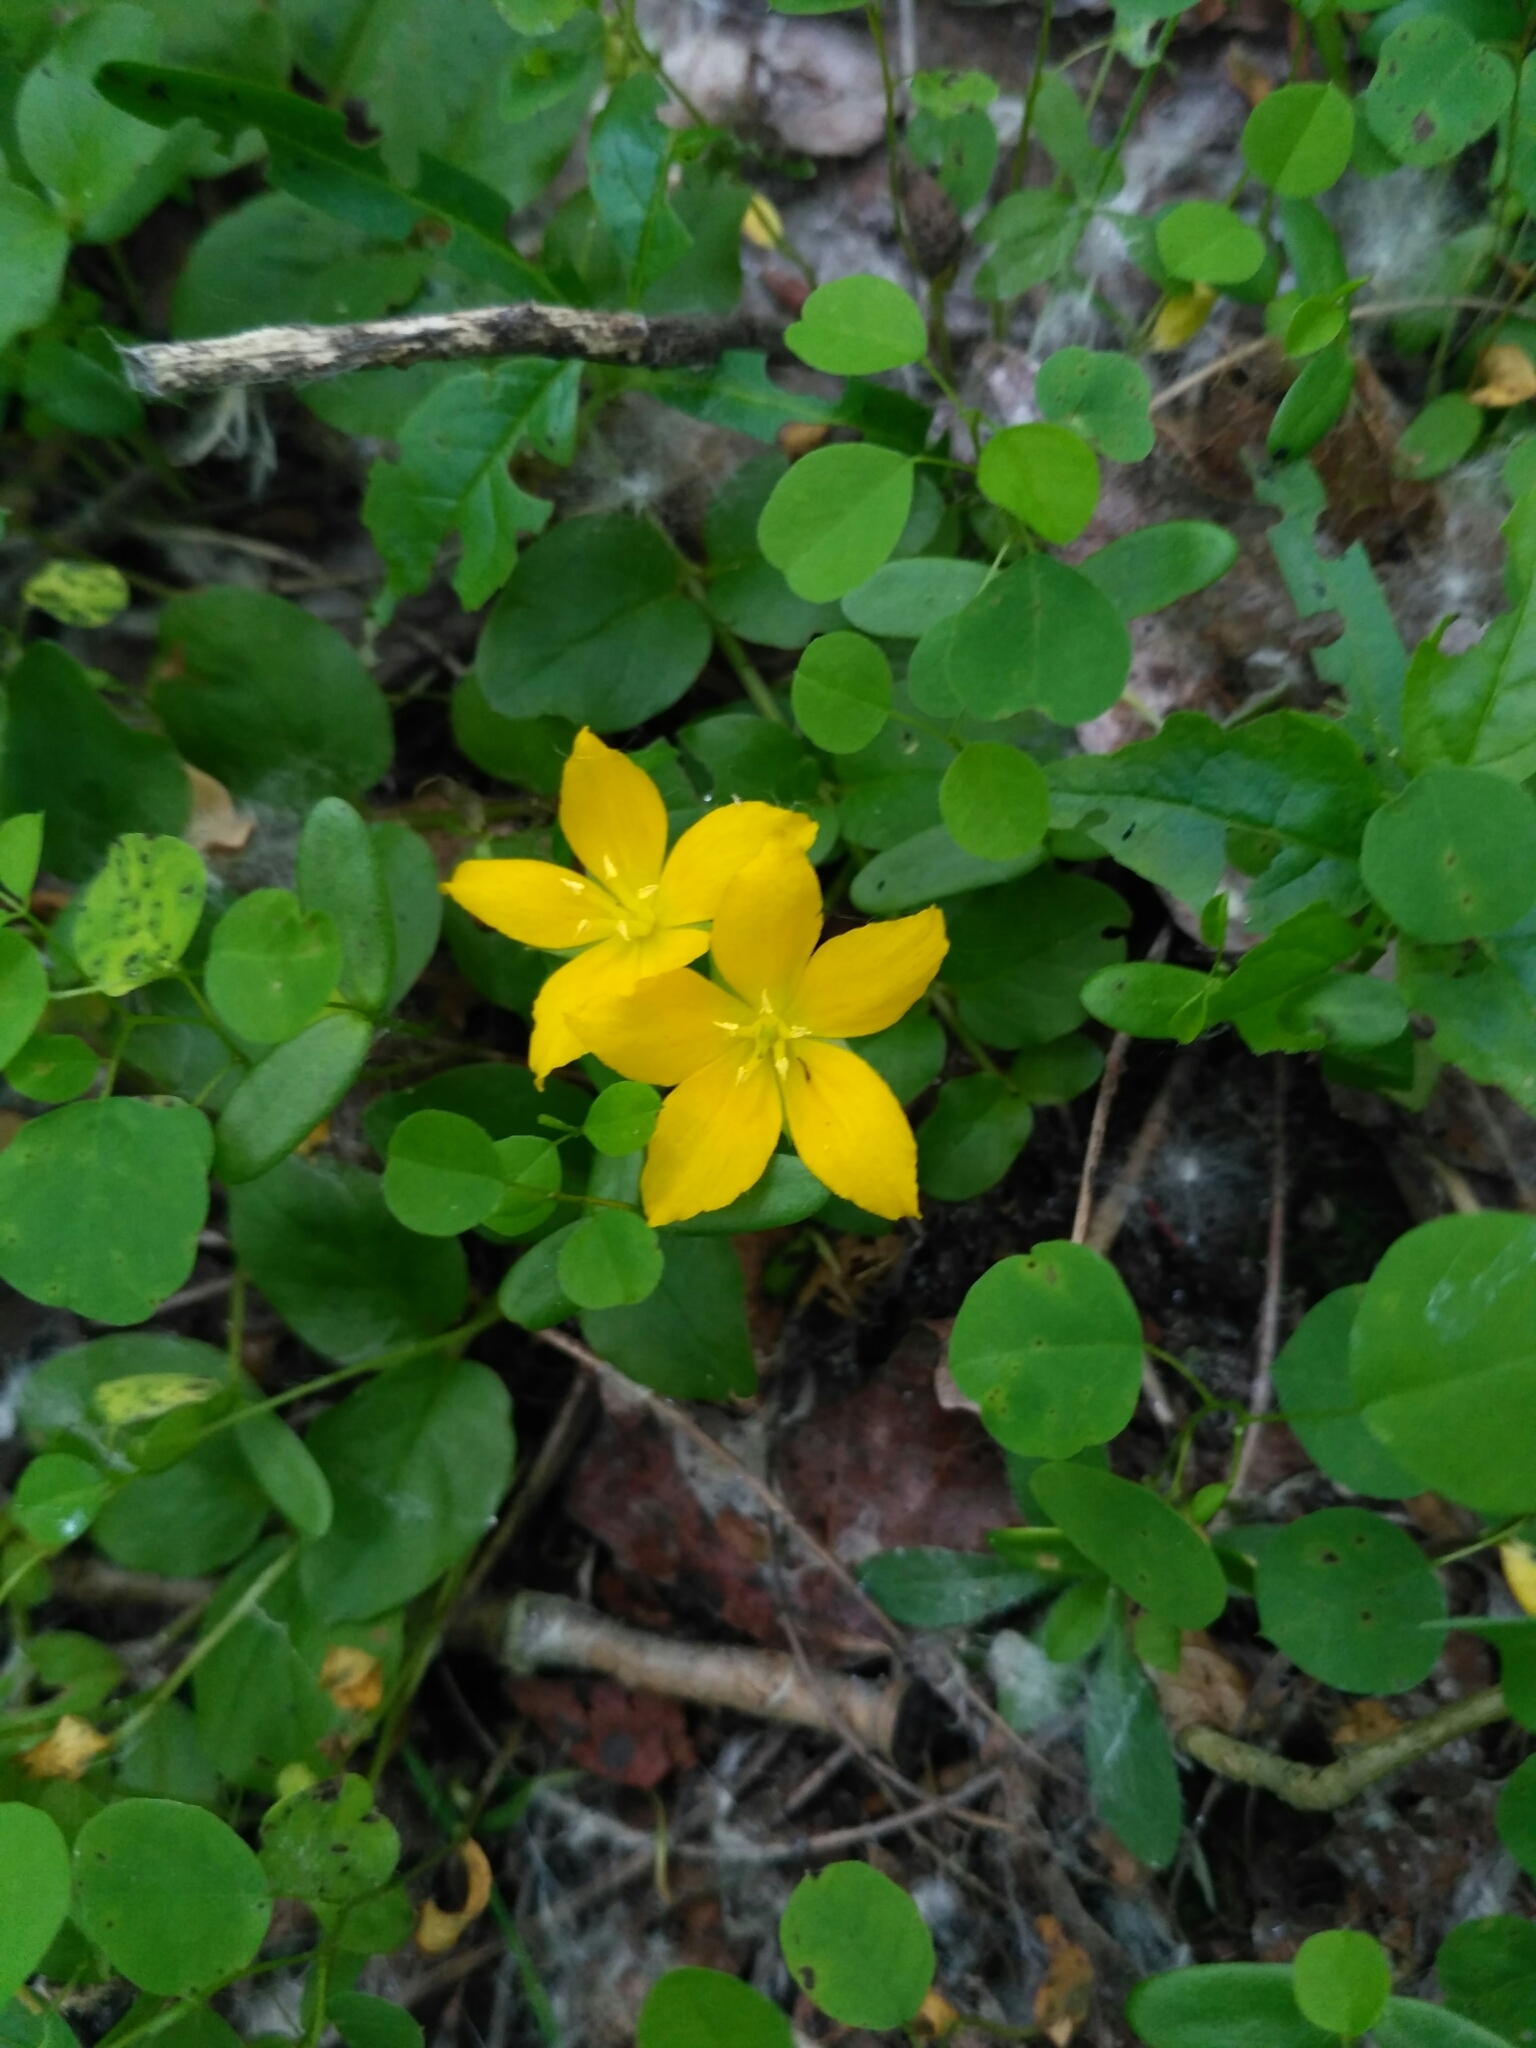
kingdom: Plantae
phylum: Tracheophyta
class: Magnoliopsida
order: Ericales
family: Primulaceae
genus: Lysimachia
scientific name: Lysimachia nummularia
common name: Moneywort
